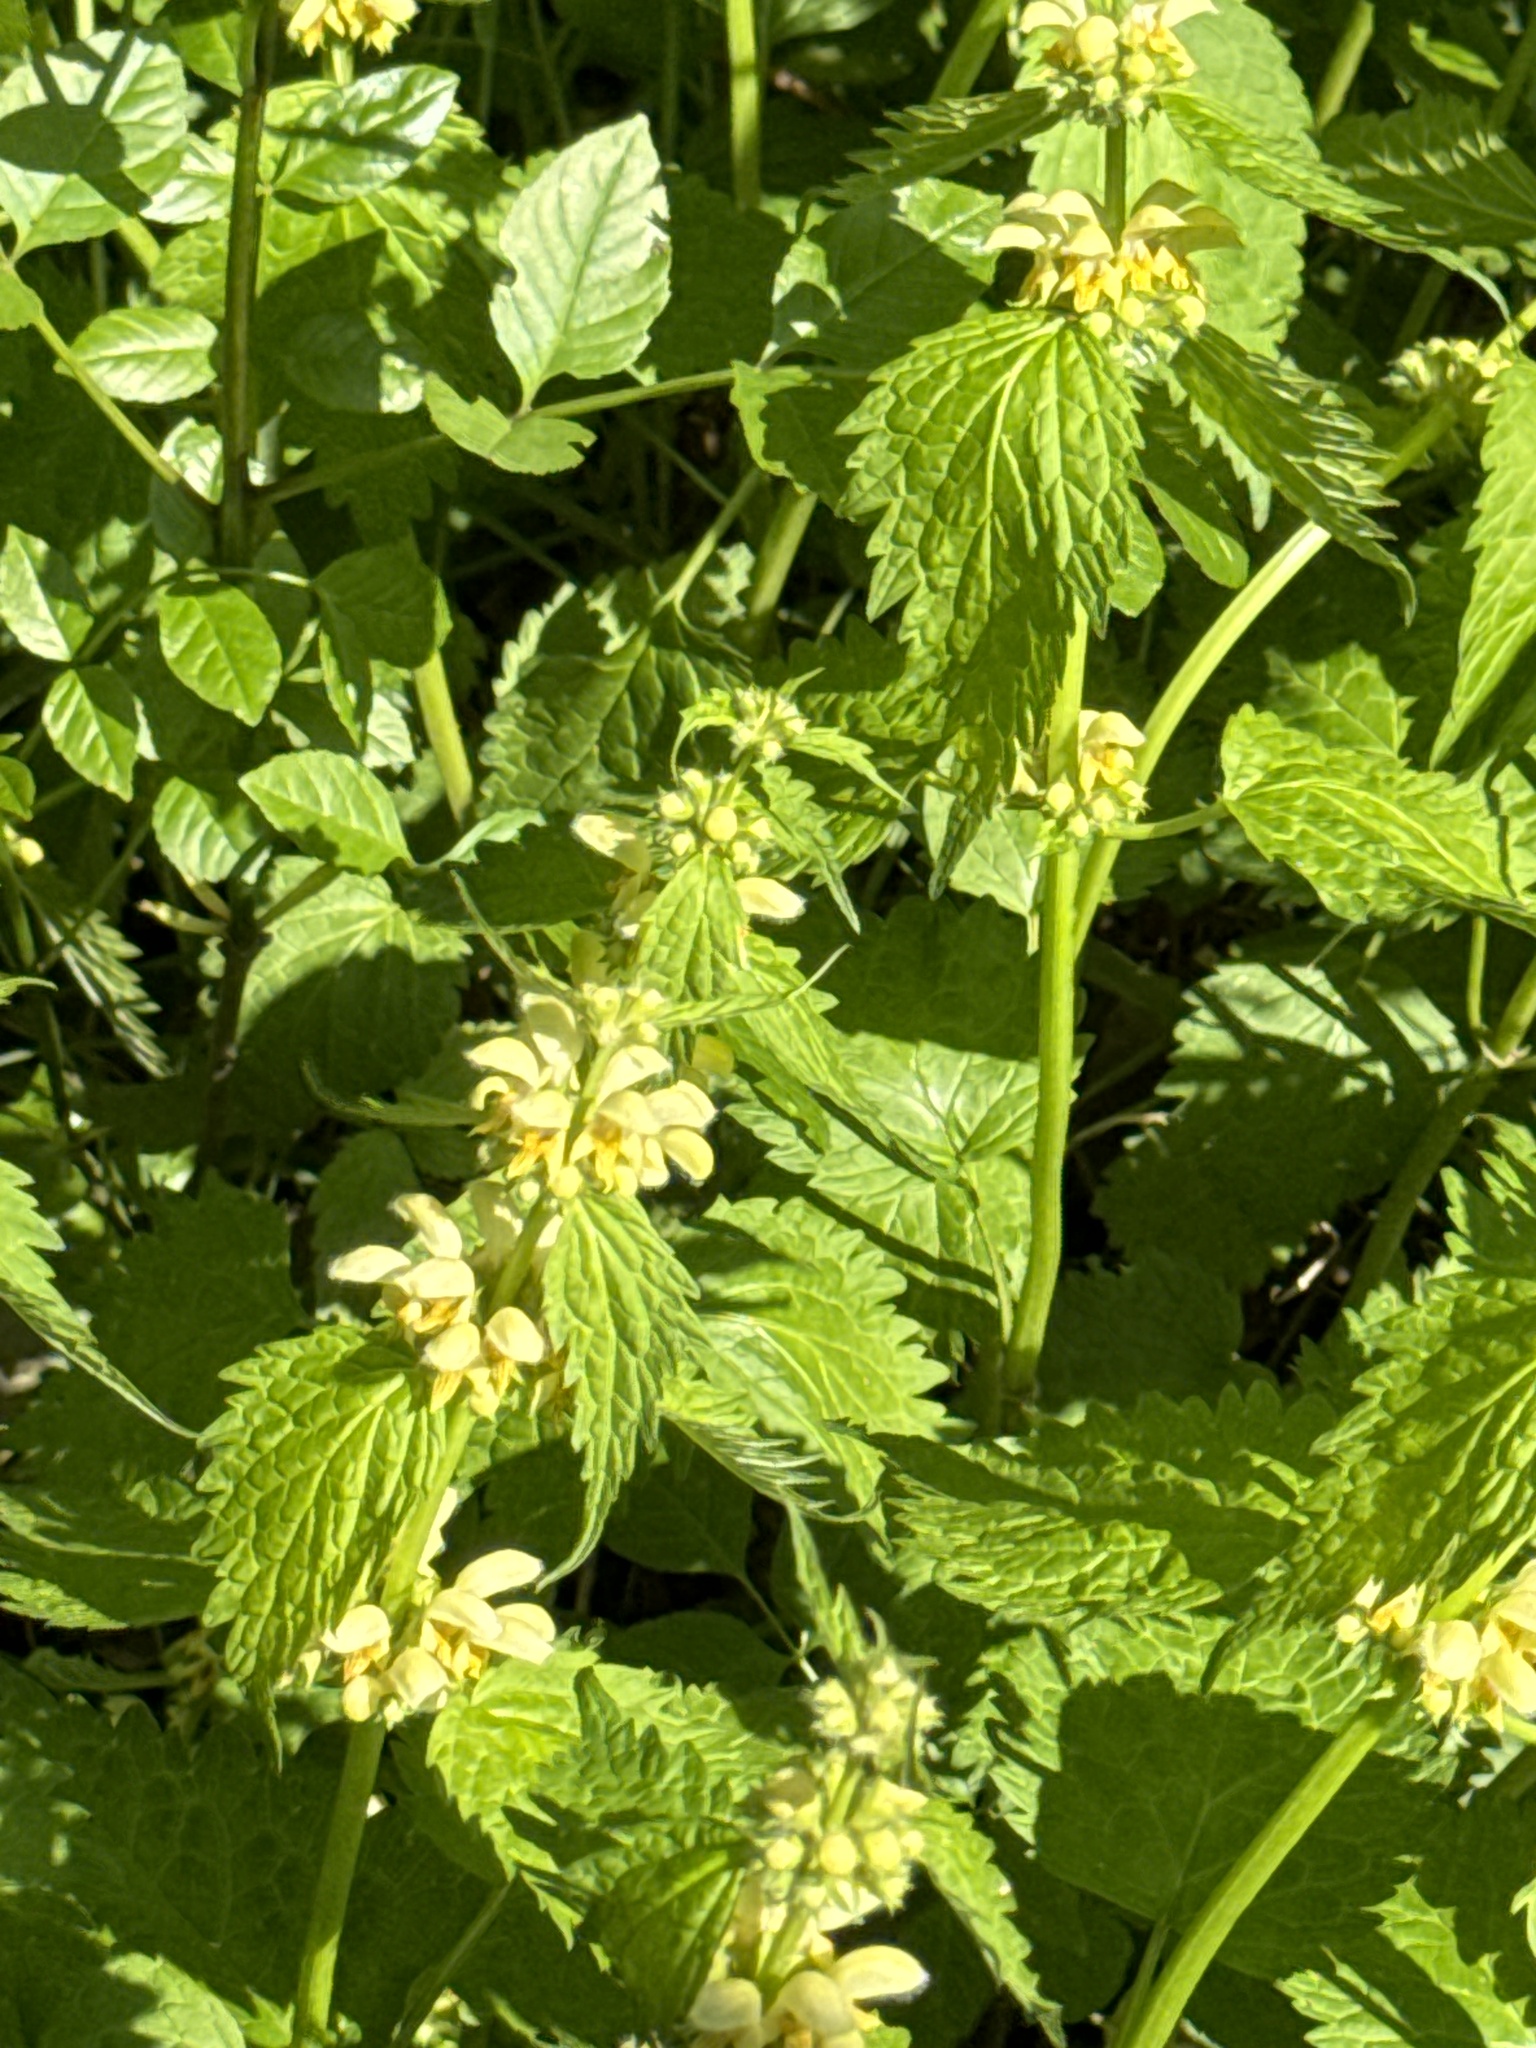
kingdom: Plantae
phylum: Tracheophyta
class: Magnoliopsida
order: Lamiales
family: Lamiaceae
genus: Lamium
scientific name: Lamium galeobdolon
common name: Yellow archangel
